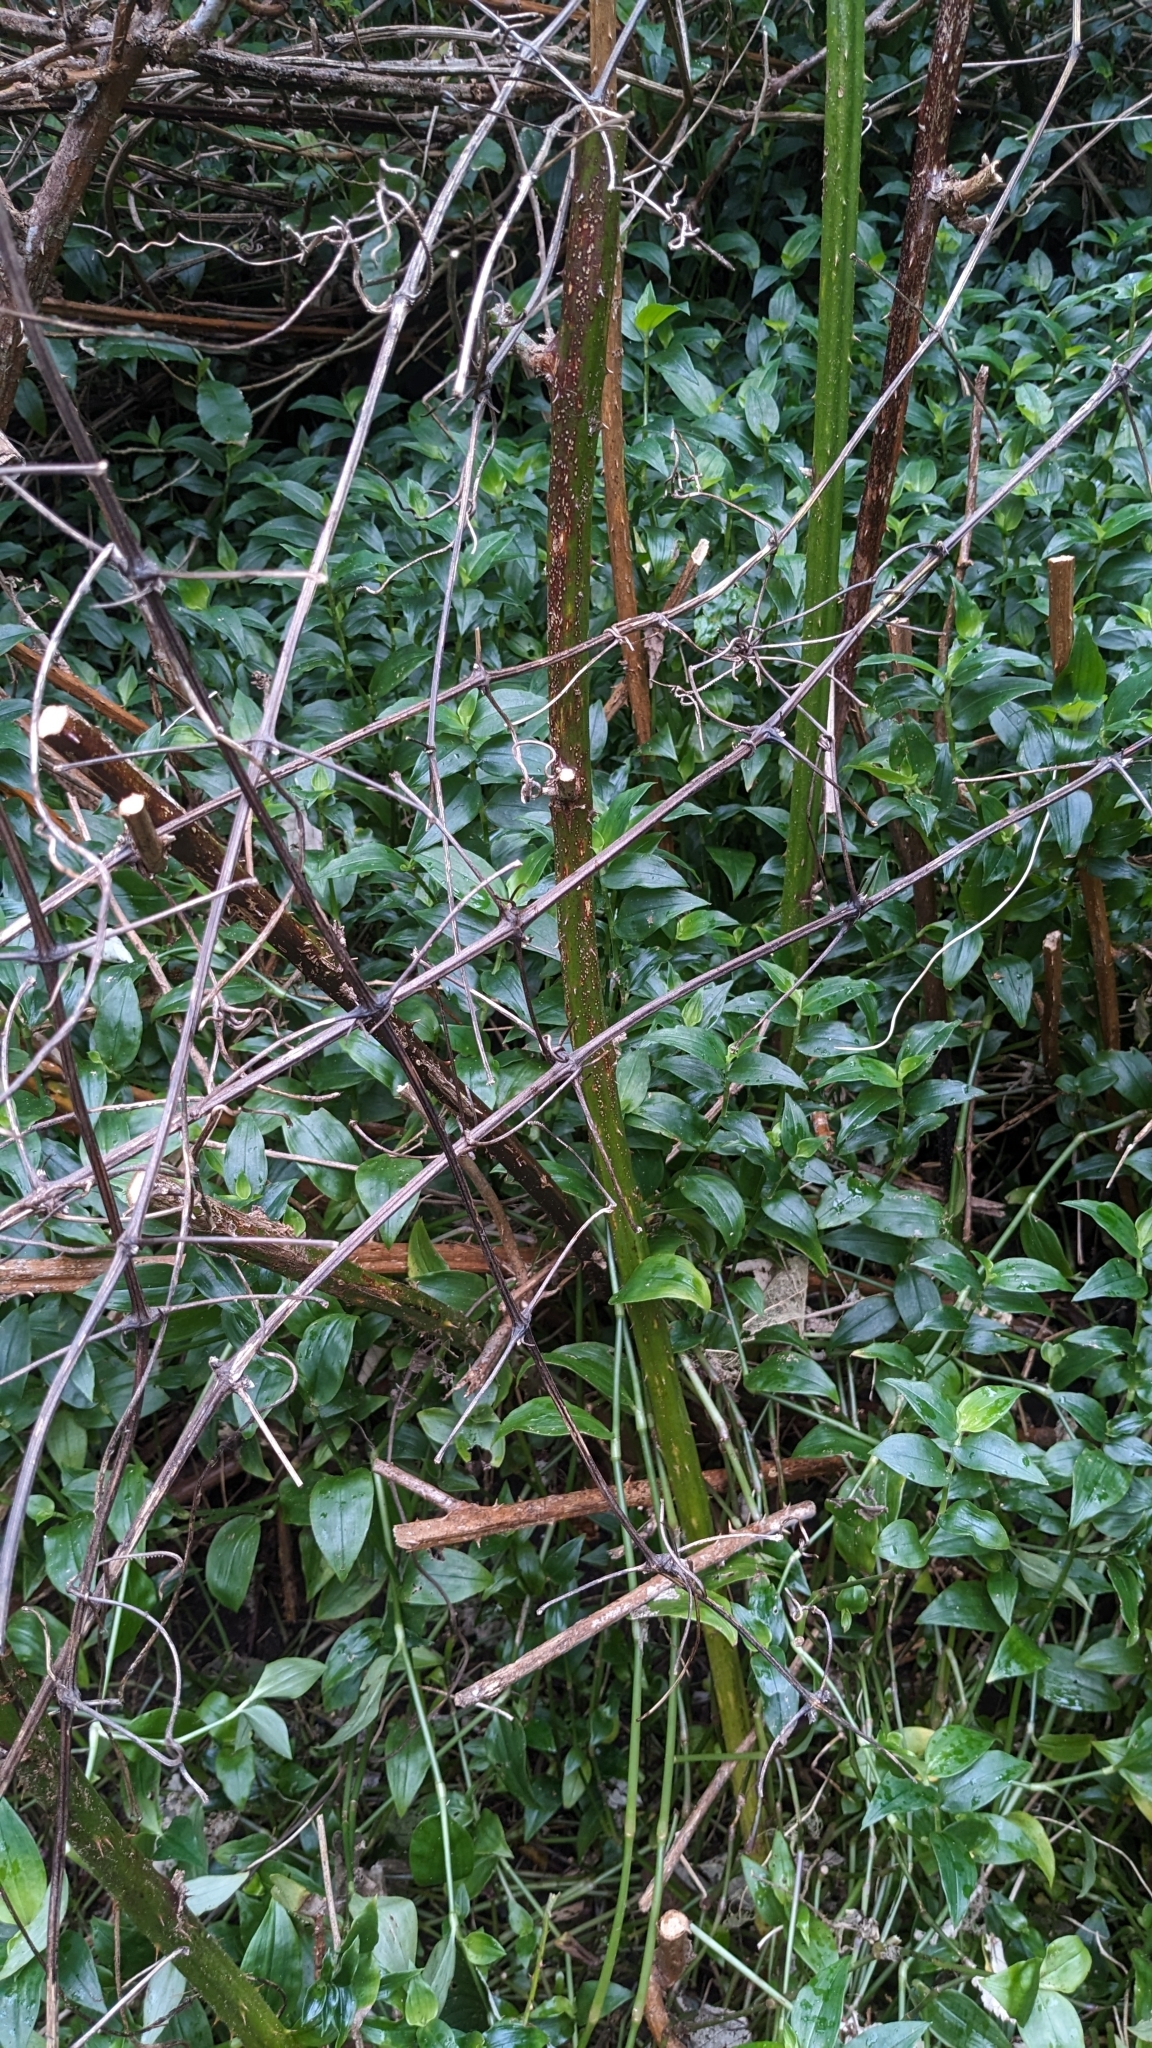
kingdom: Plantae
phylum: Tracheophyta
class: Magnoliopsida
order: Ranunculales
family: Ranunculaceae
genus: Clematis
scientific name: Clematis vitalba
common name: Evergreen clematis
